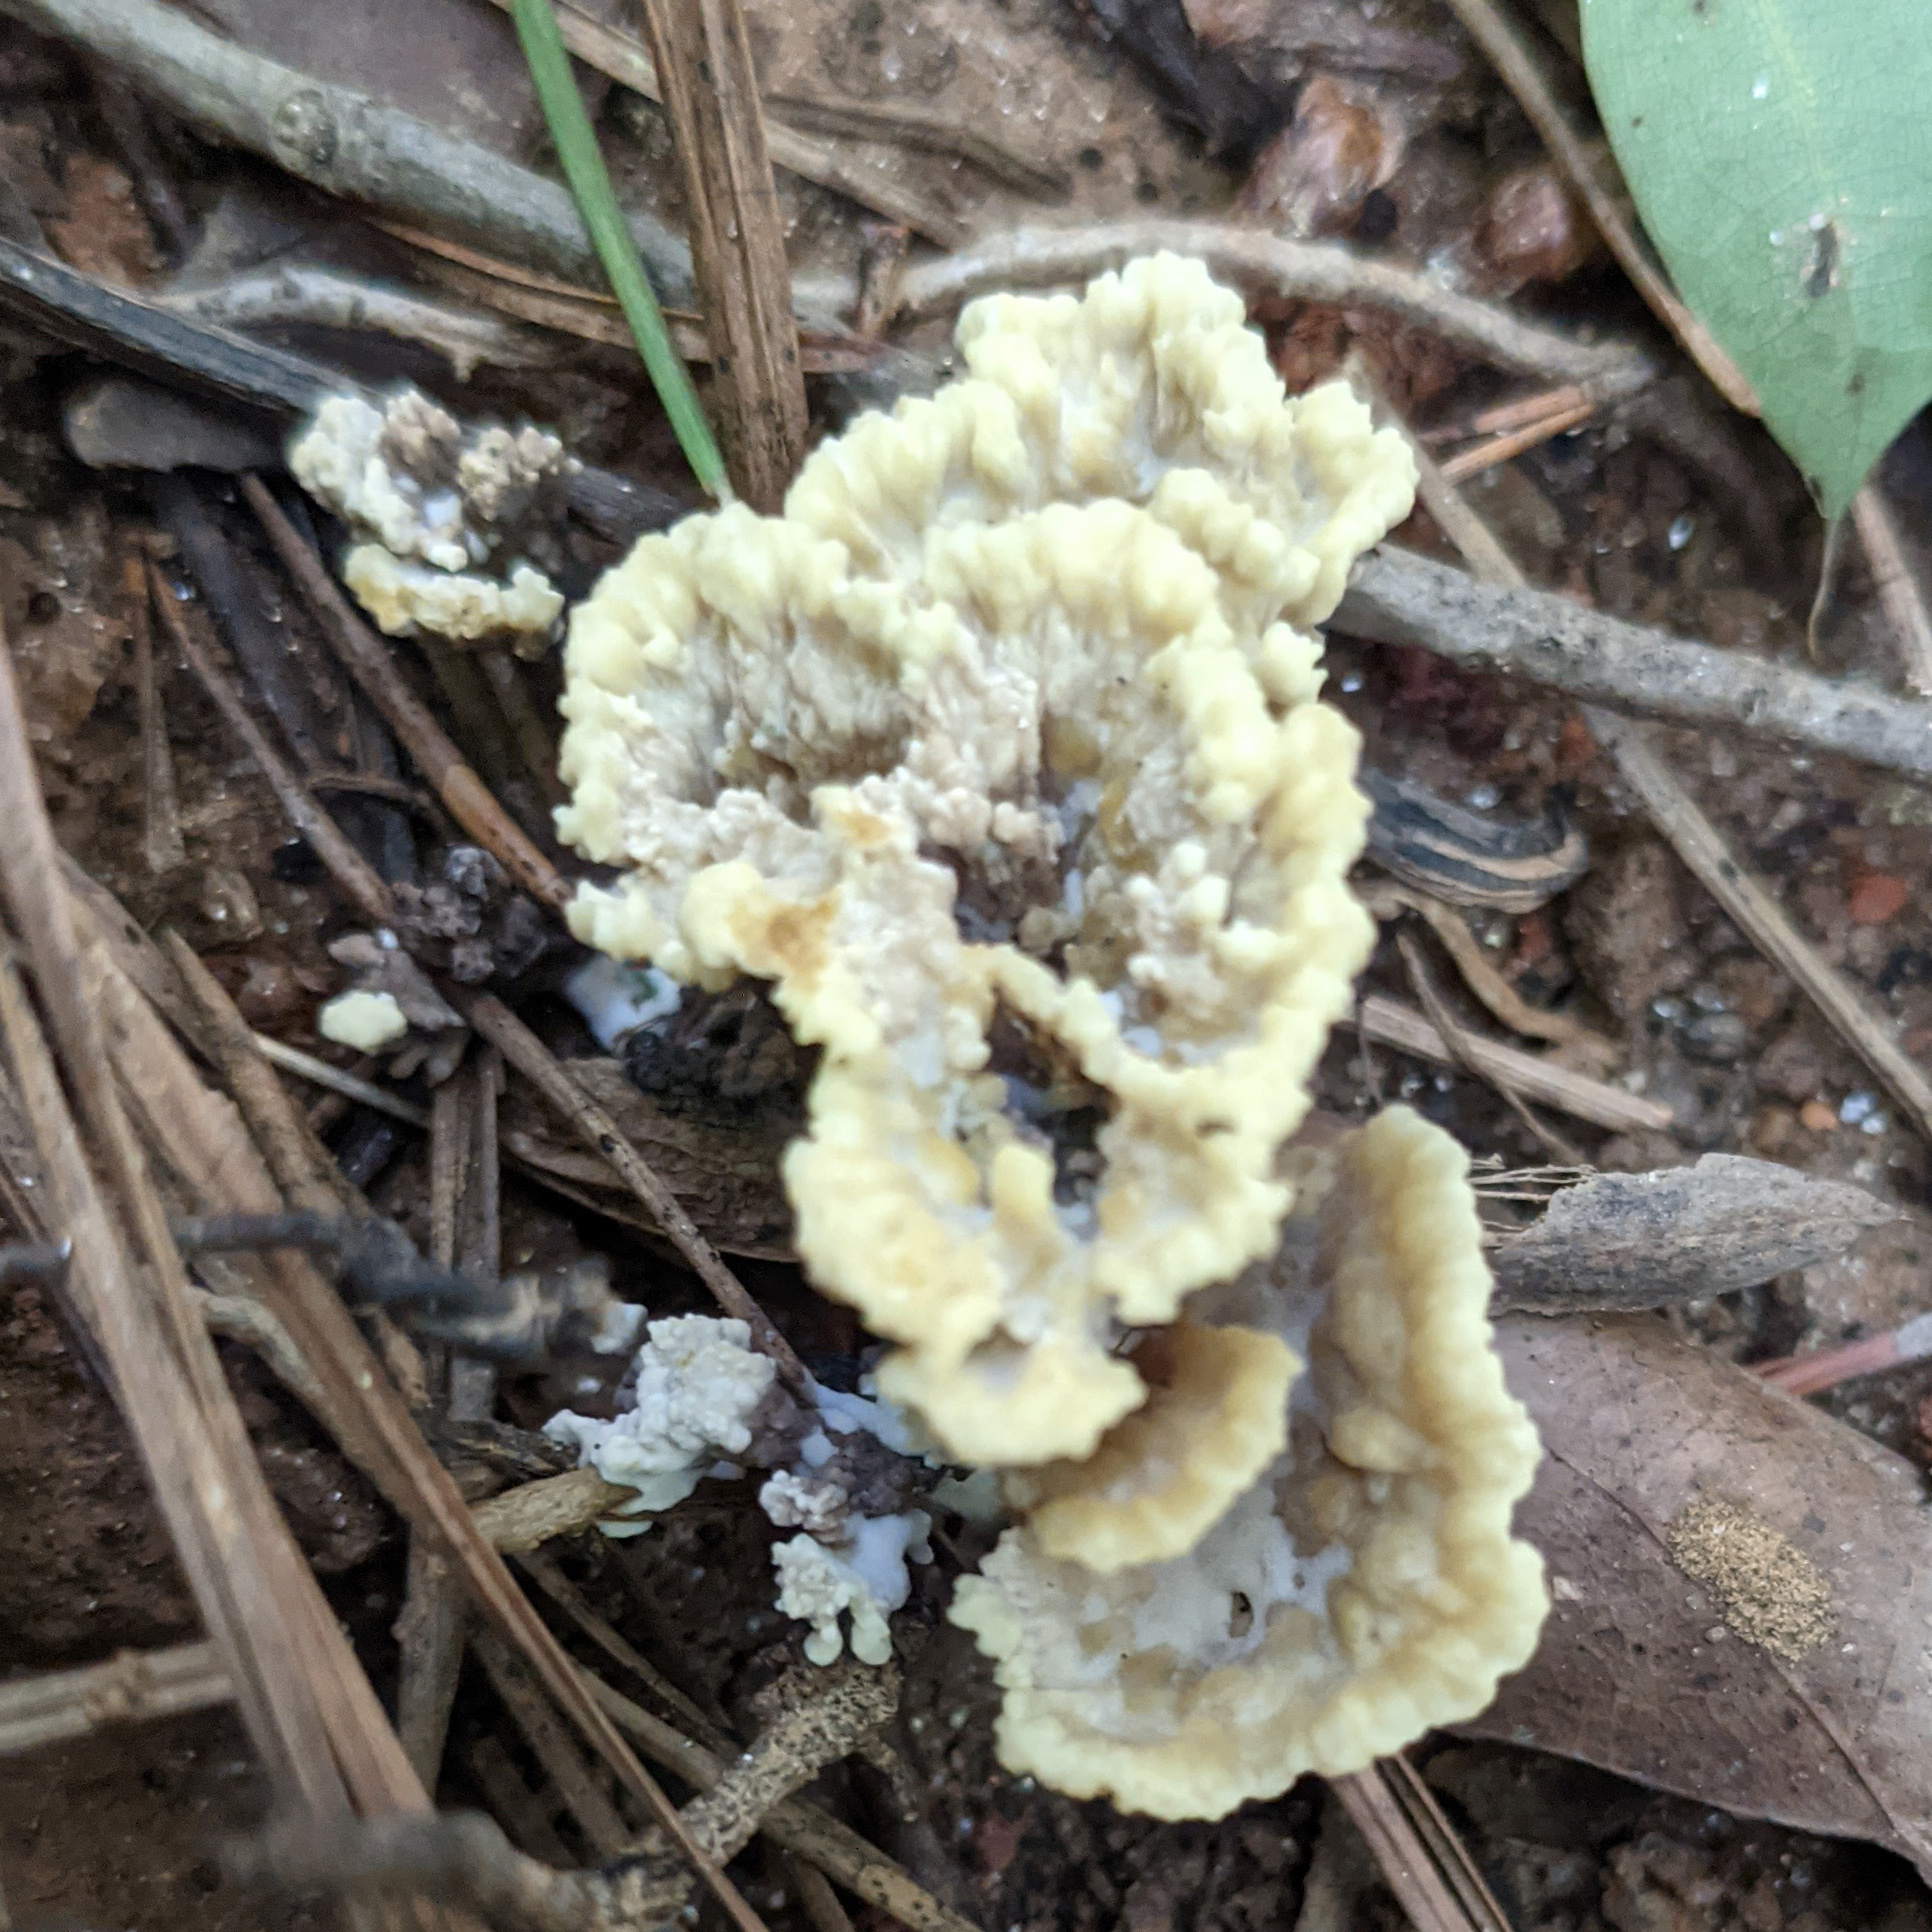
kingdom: Fungi
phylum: Basidiomycota
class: Agaricomycetes
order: Thelephorales
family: Thelephoraceae
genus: Thelephora
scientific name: Thelephora vialis
